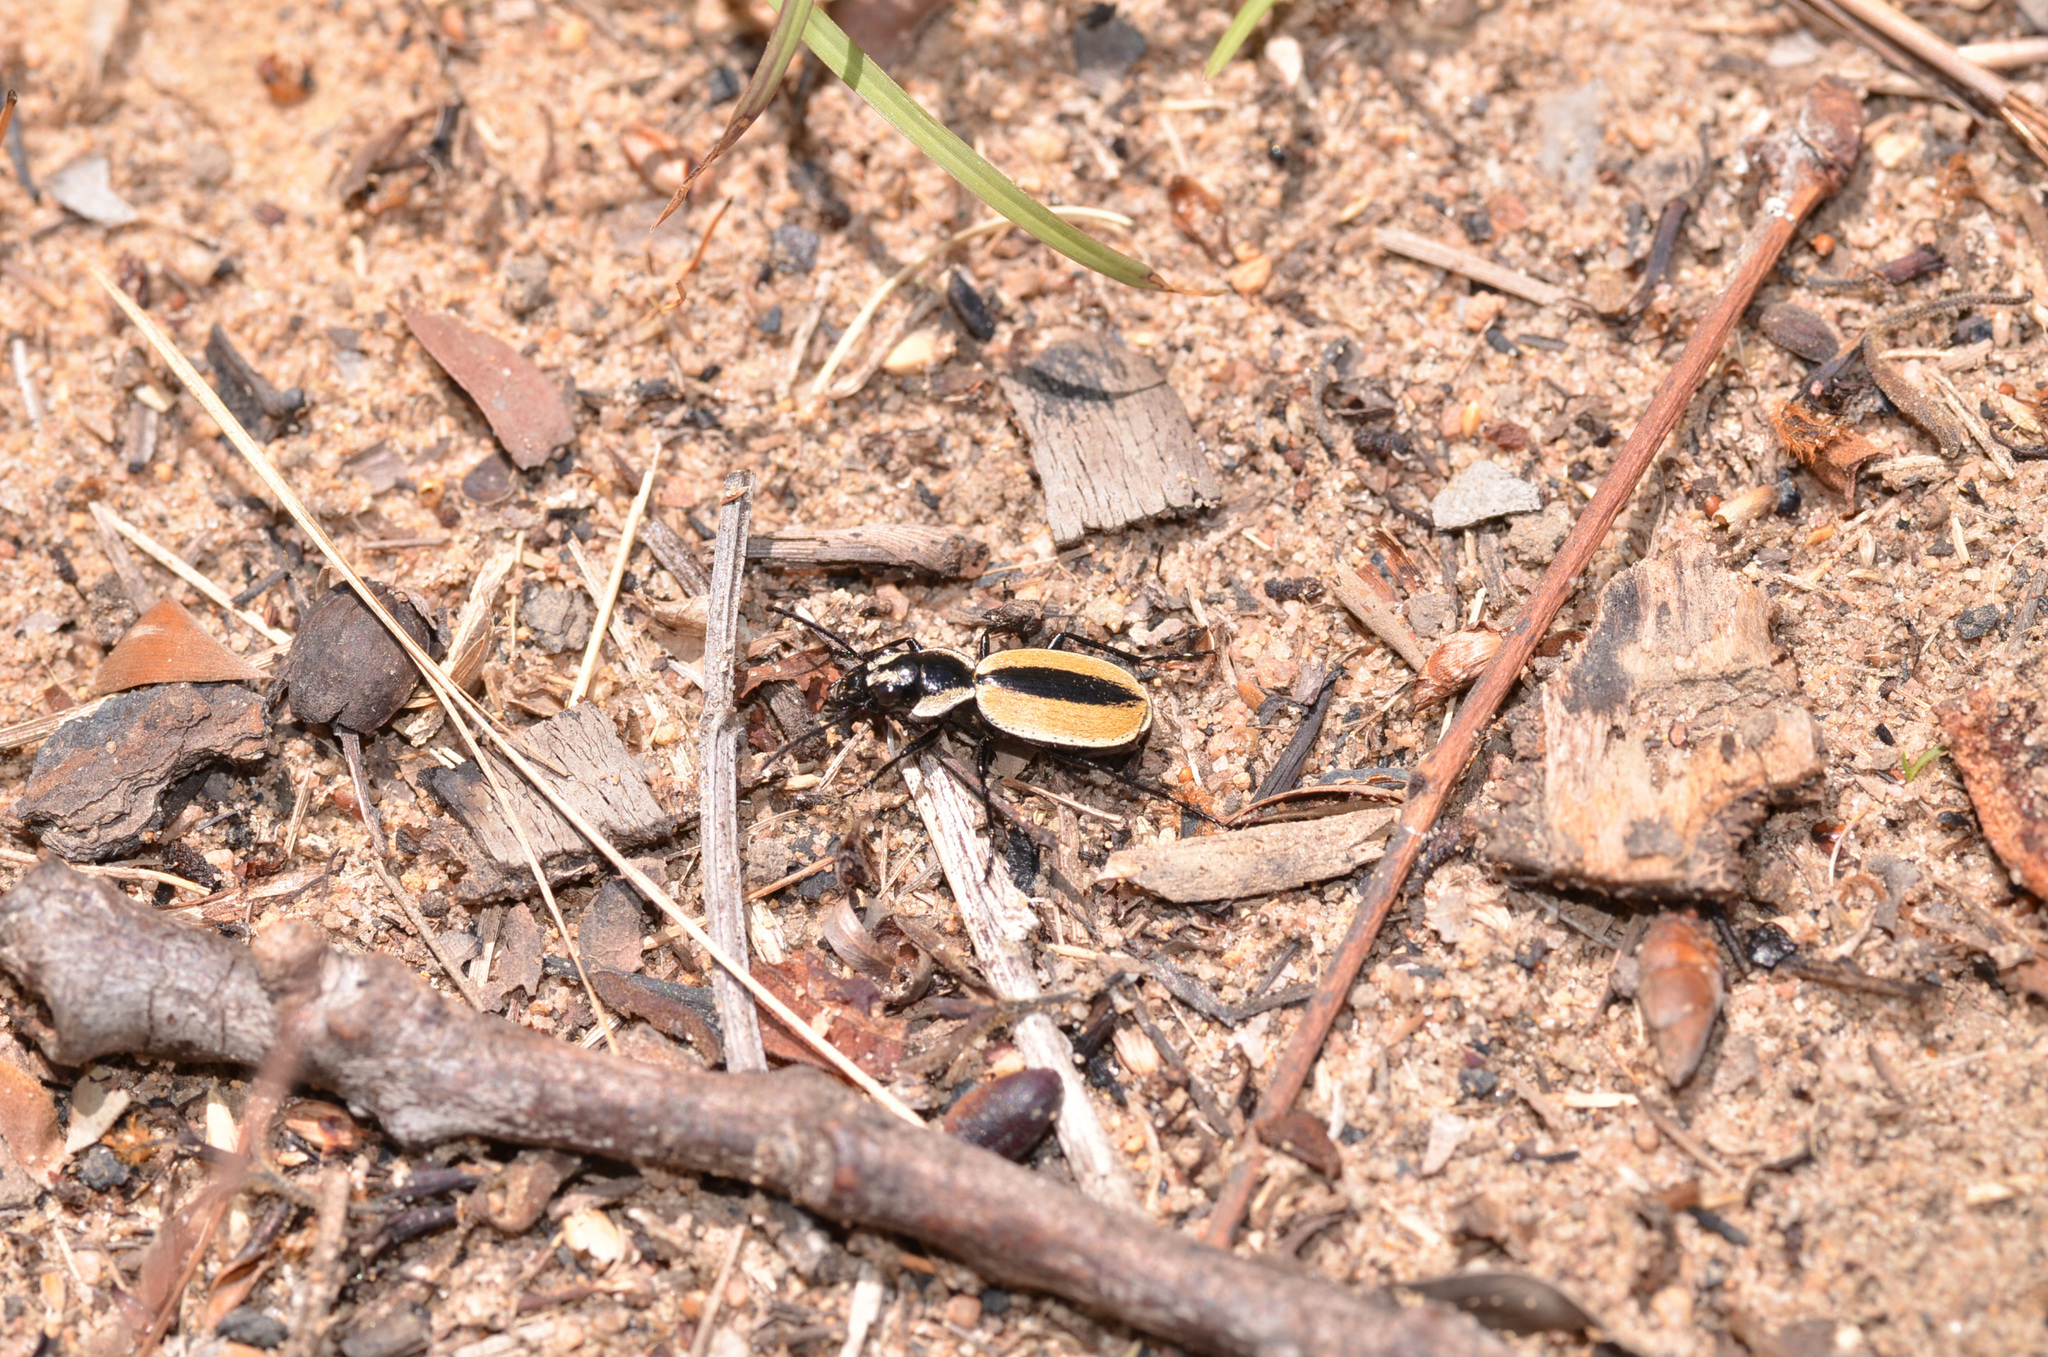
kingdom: Animalia
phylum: Arthropoda
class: Insecta
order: Coleoptera
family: Carabidae
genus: Graphipterus
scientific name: Graphipterus neavei
